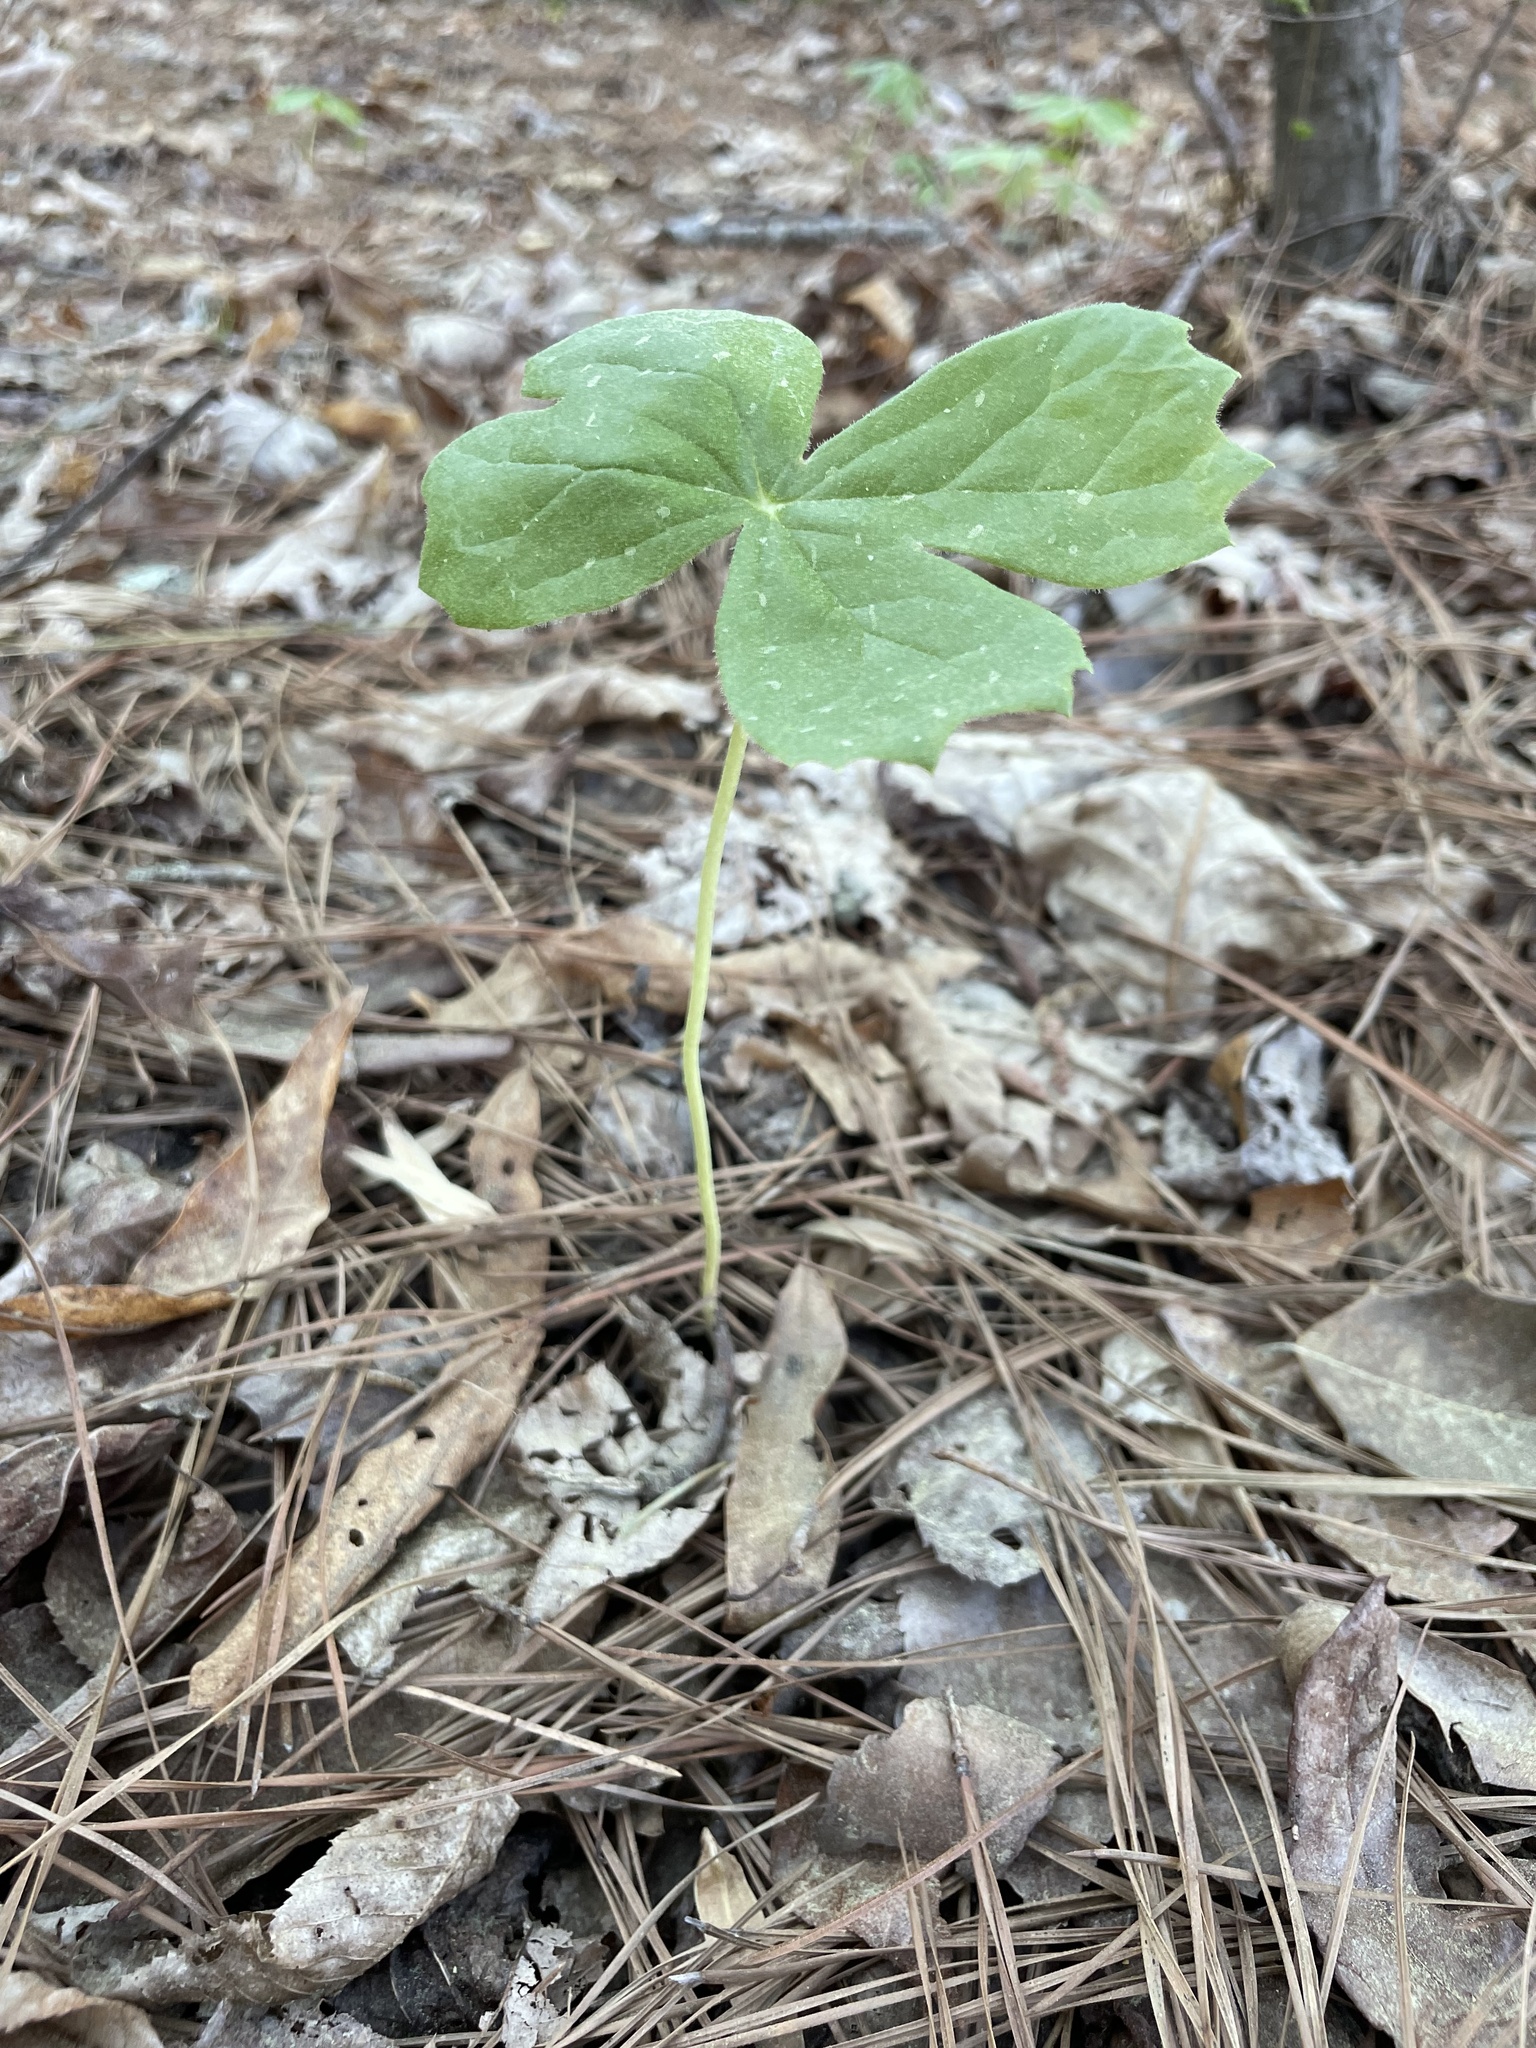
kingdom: Plantae
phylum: Tracheophyta
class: Magnoliopsida
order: Ranunculales
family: Berberidaceae
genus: Podophyllum
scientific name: Podophyllum peltatum
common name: Wild mandrake
